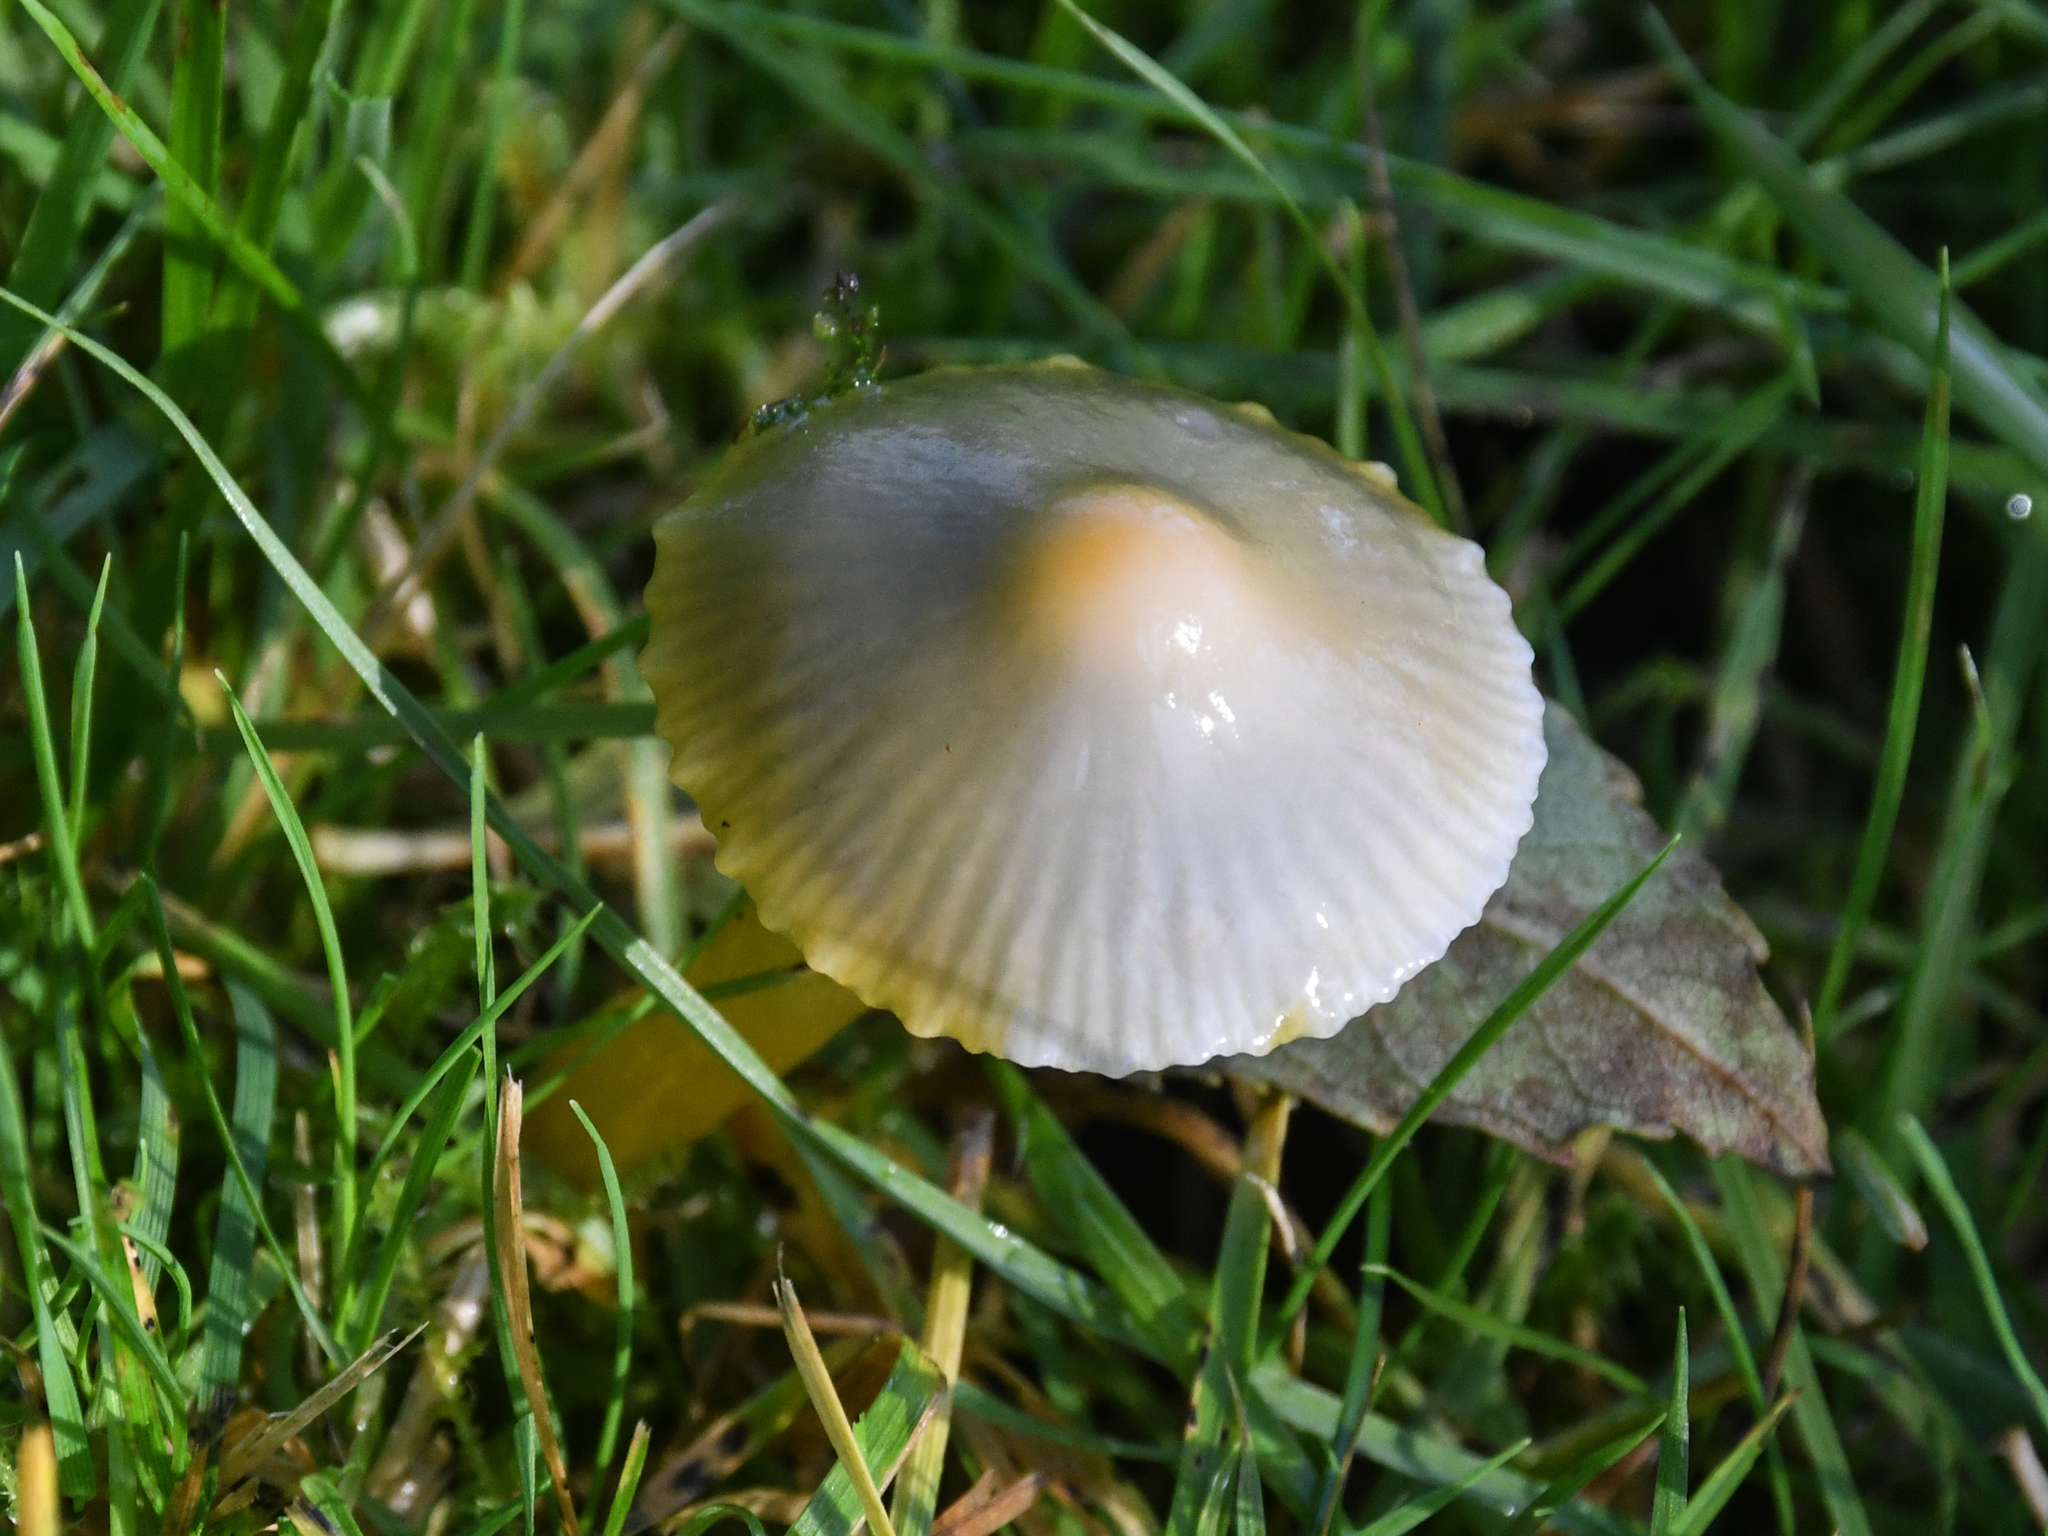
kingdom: Fungi
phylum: Basidiomycota
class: Agaricomycetes
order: Agaricales
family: Hygrophoraceae
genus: Gliophorus
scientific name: Gliophorus psittacinus
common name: Parrot wax-cap
